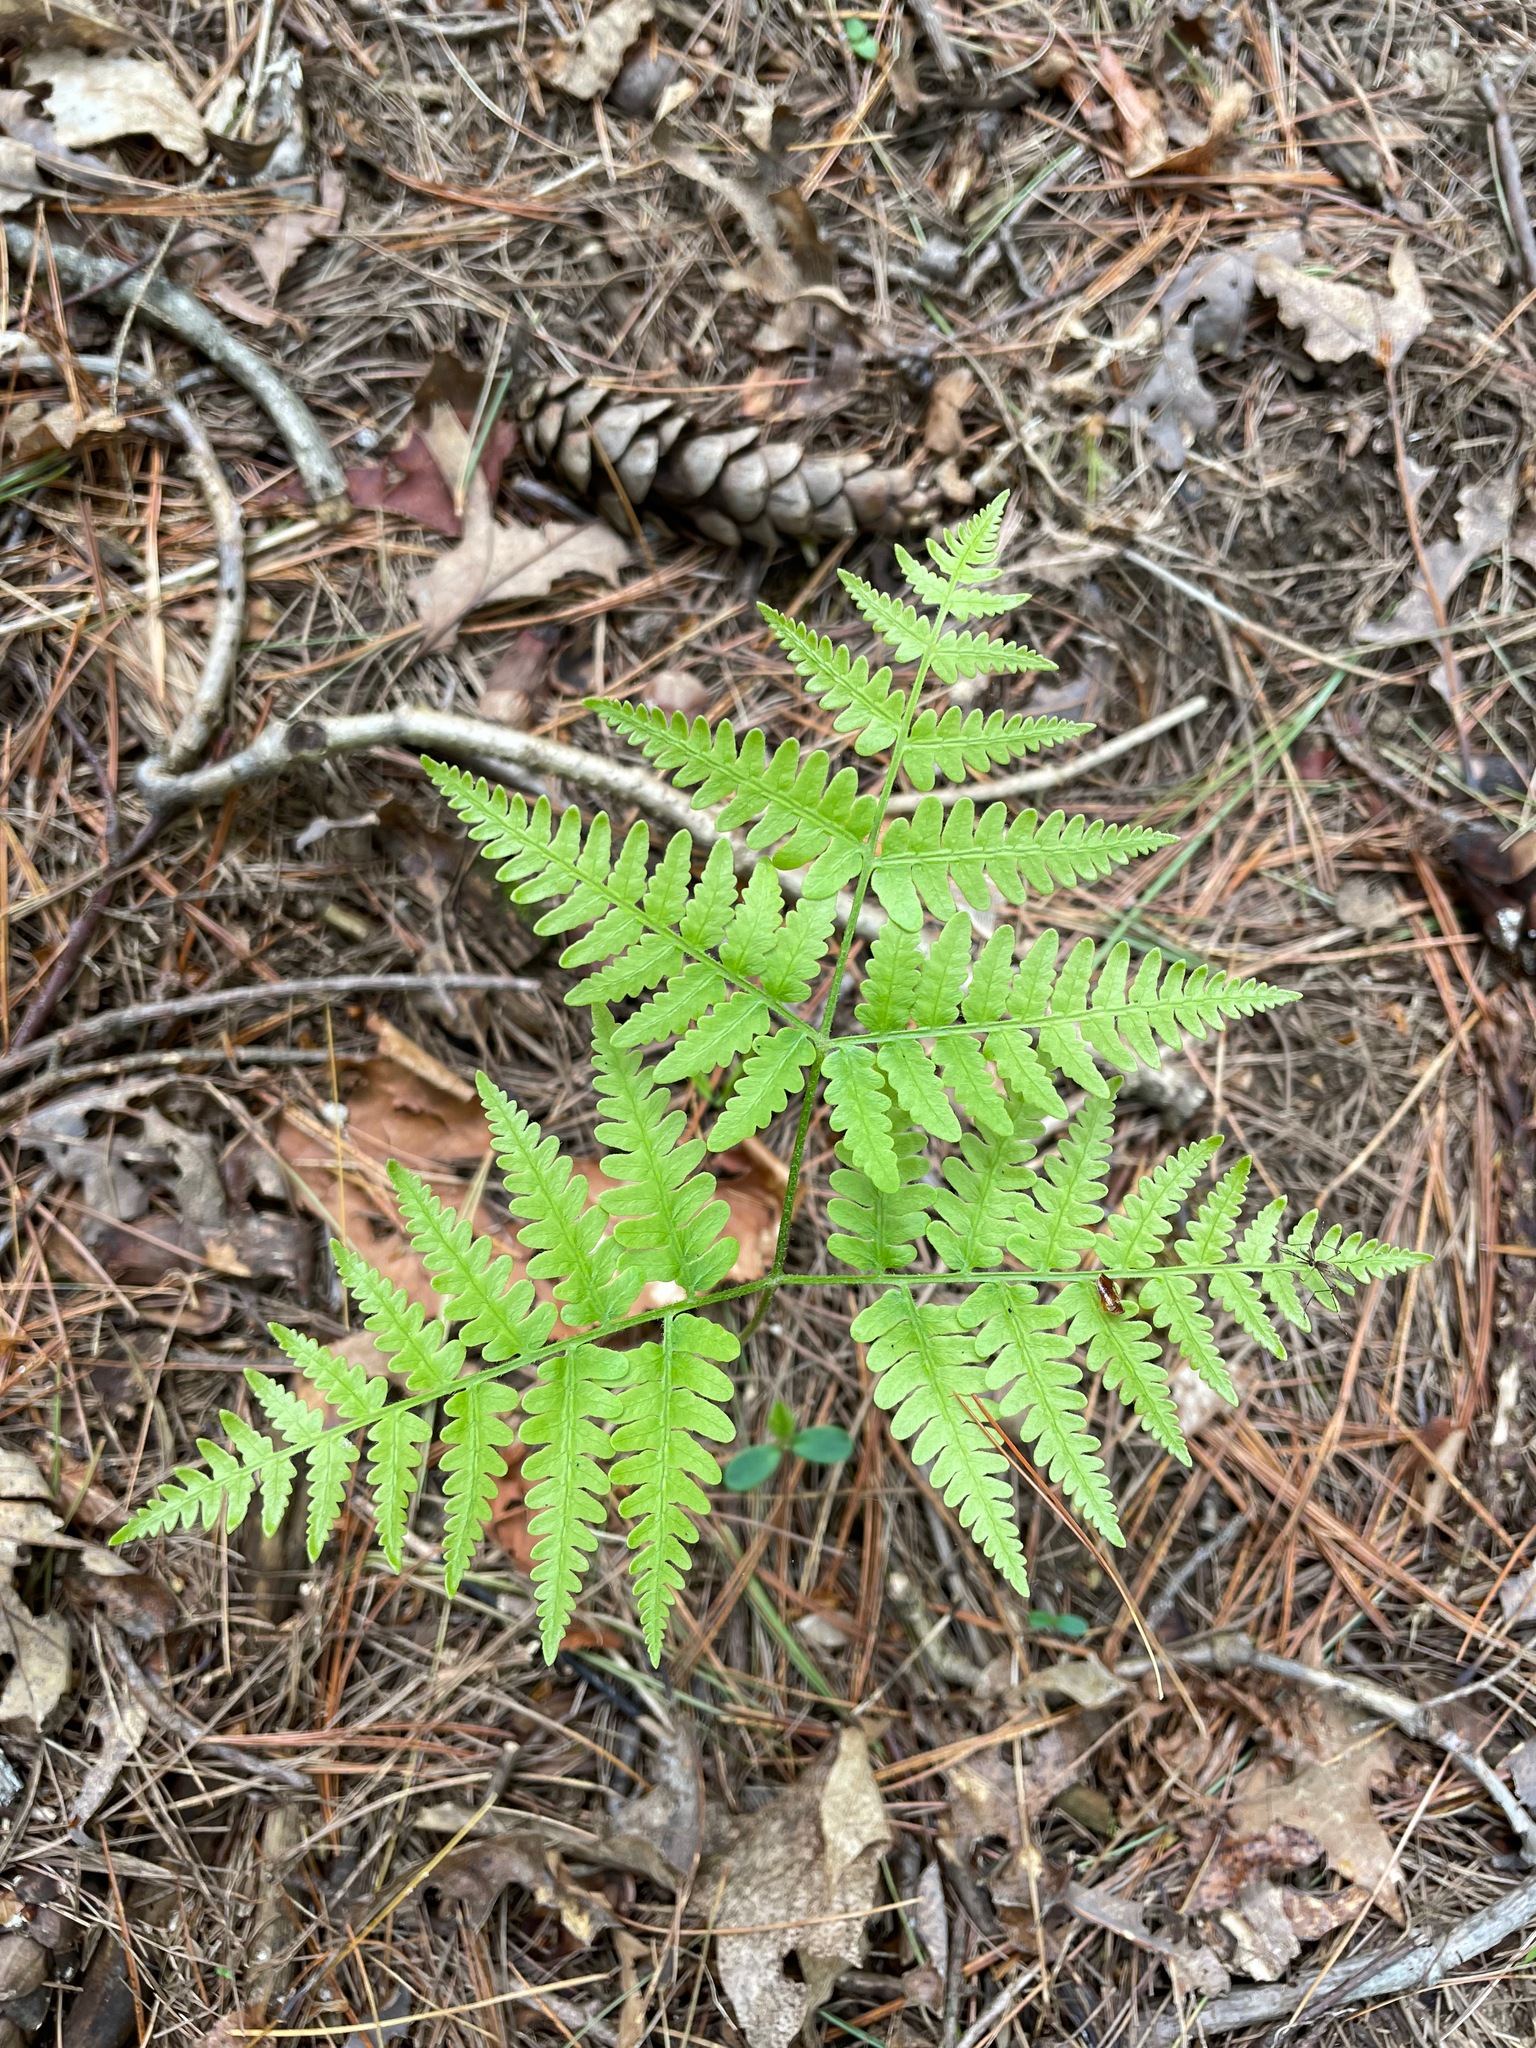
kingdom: Plantae
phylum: Tracheophyta
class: Polypodiopsida
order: Polypodiales
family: Dennstaedtiaceae
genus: Pteridium
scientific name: Pteridium aquilinum
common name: Bracken
